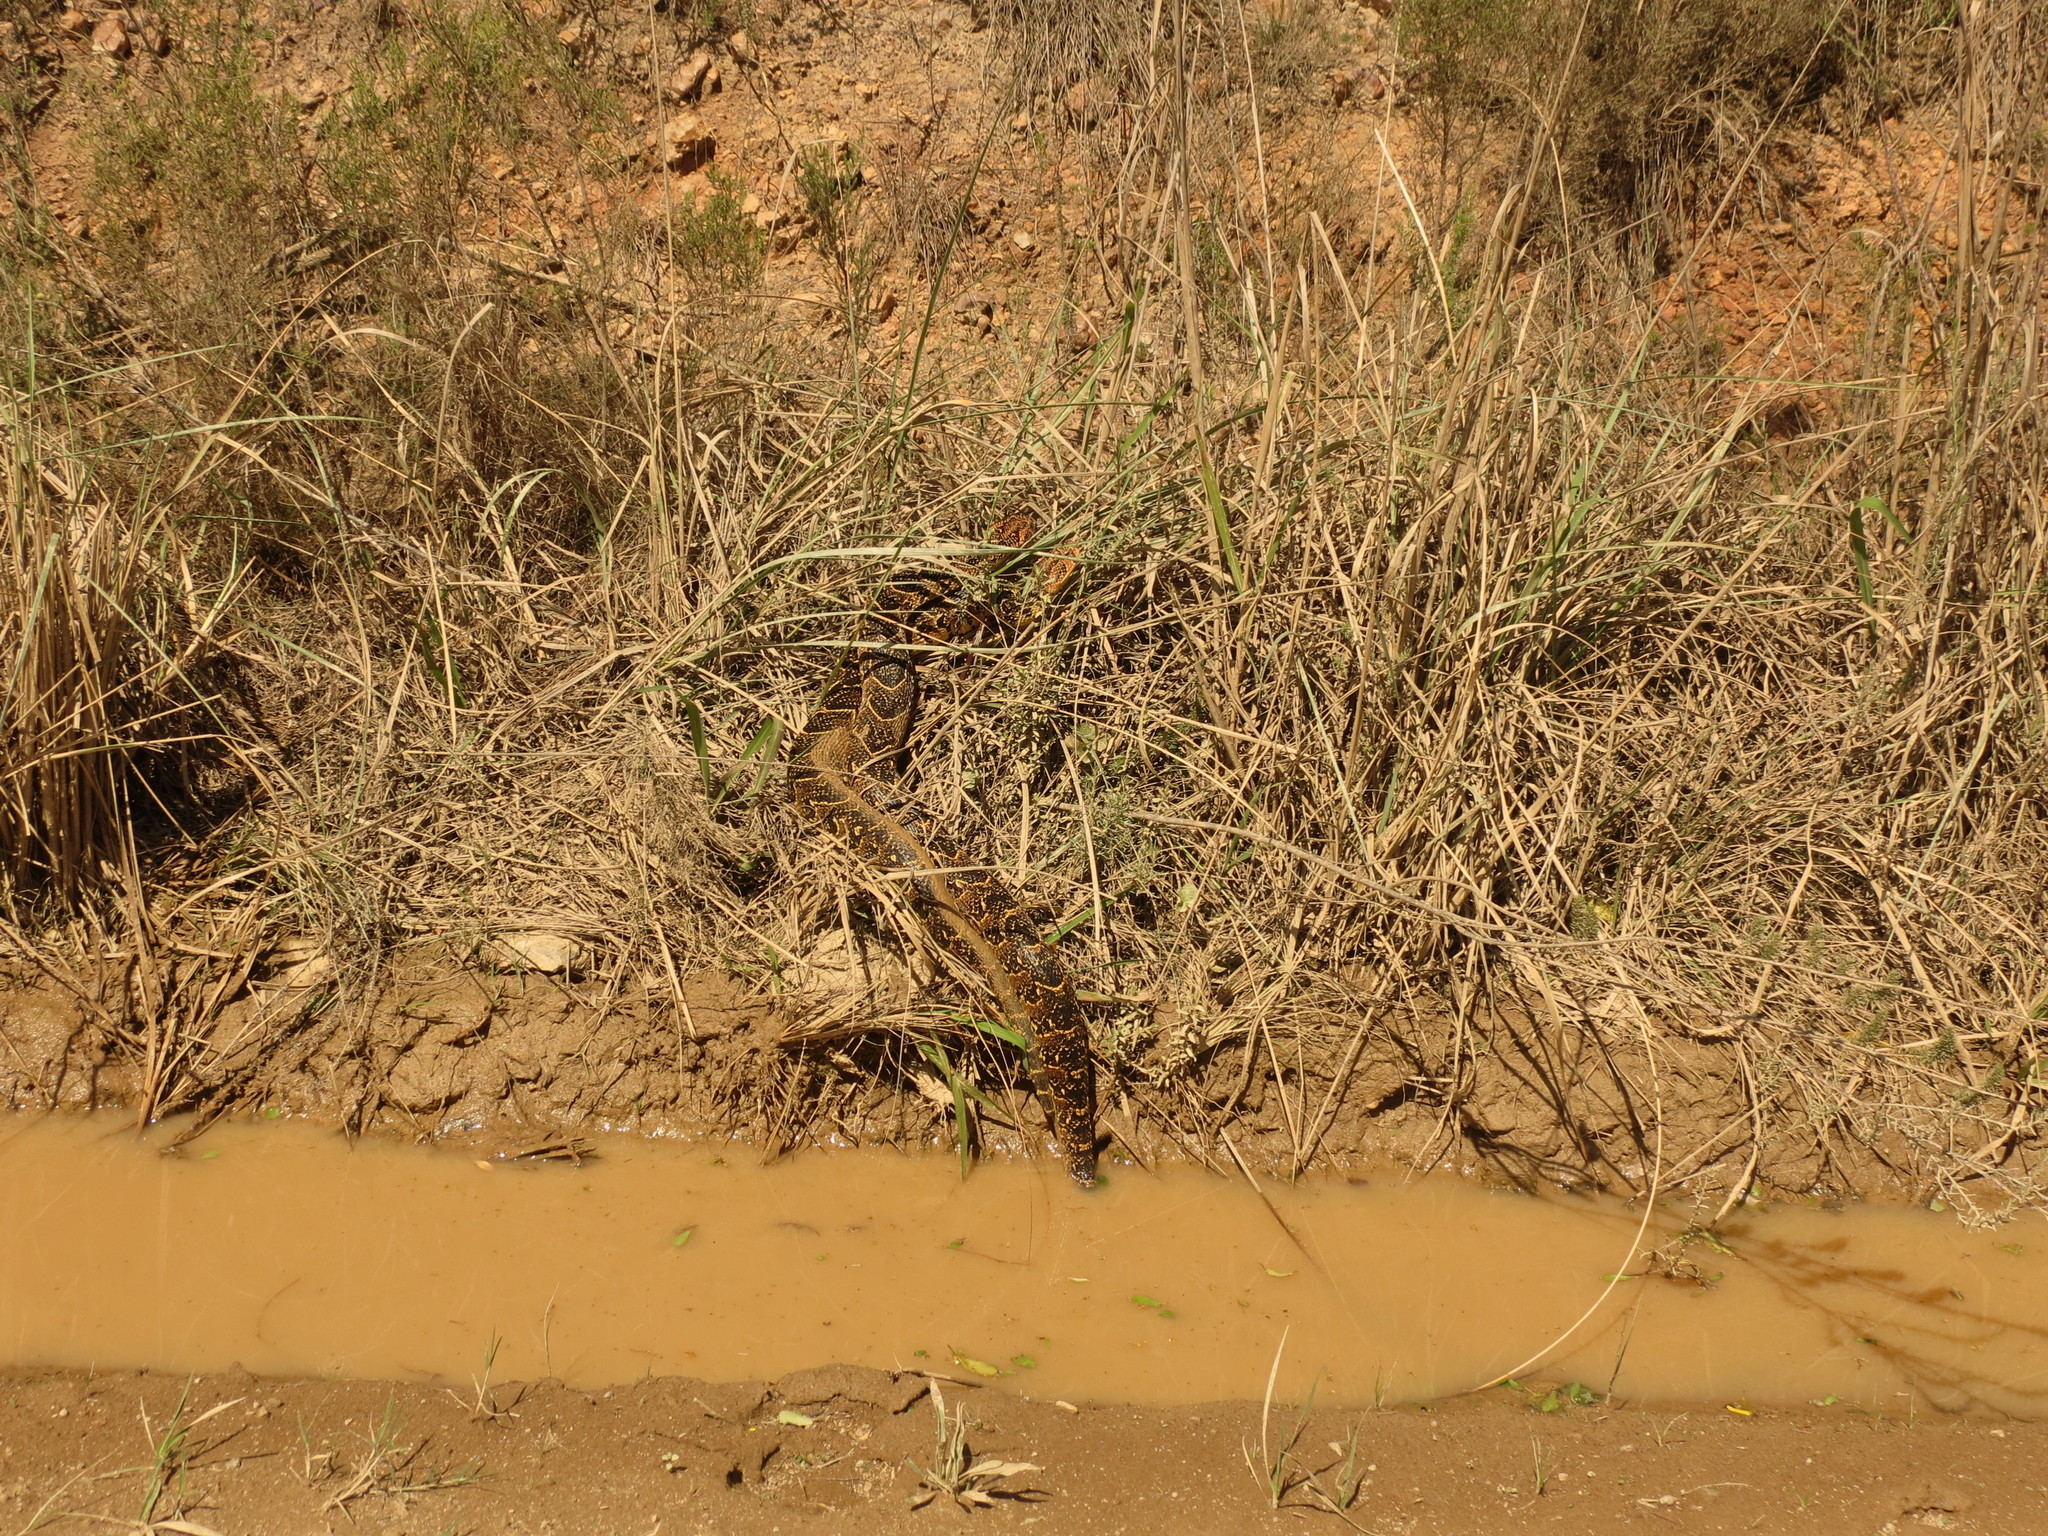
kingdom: Animalia
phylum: Chordata
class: Squamata
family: Viperidae
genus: Bitis
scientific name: Bitis arietans
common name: Puff adder
